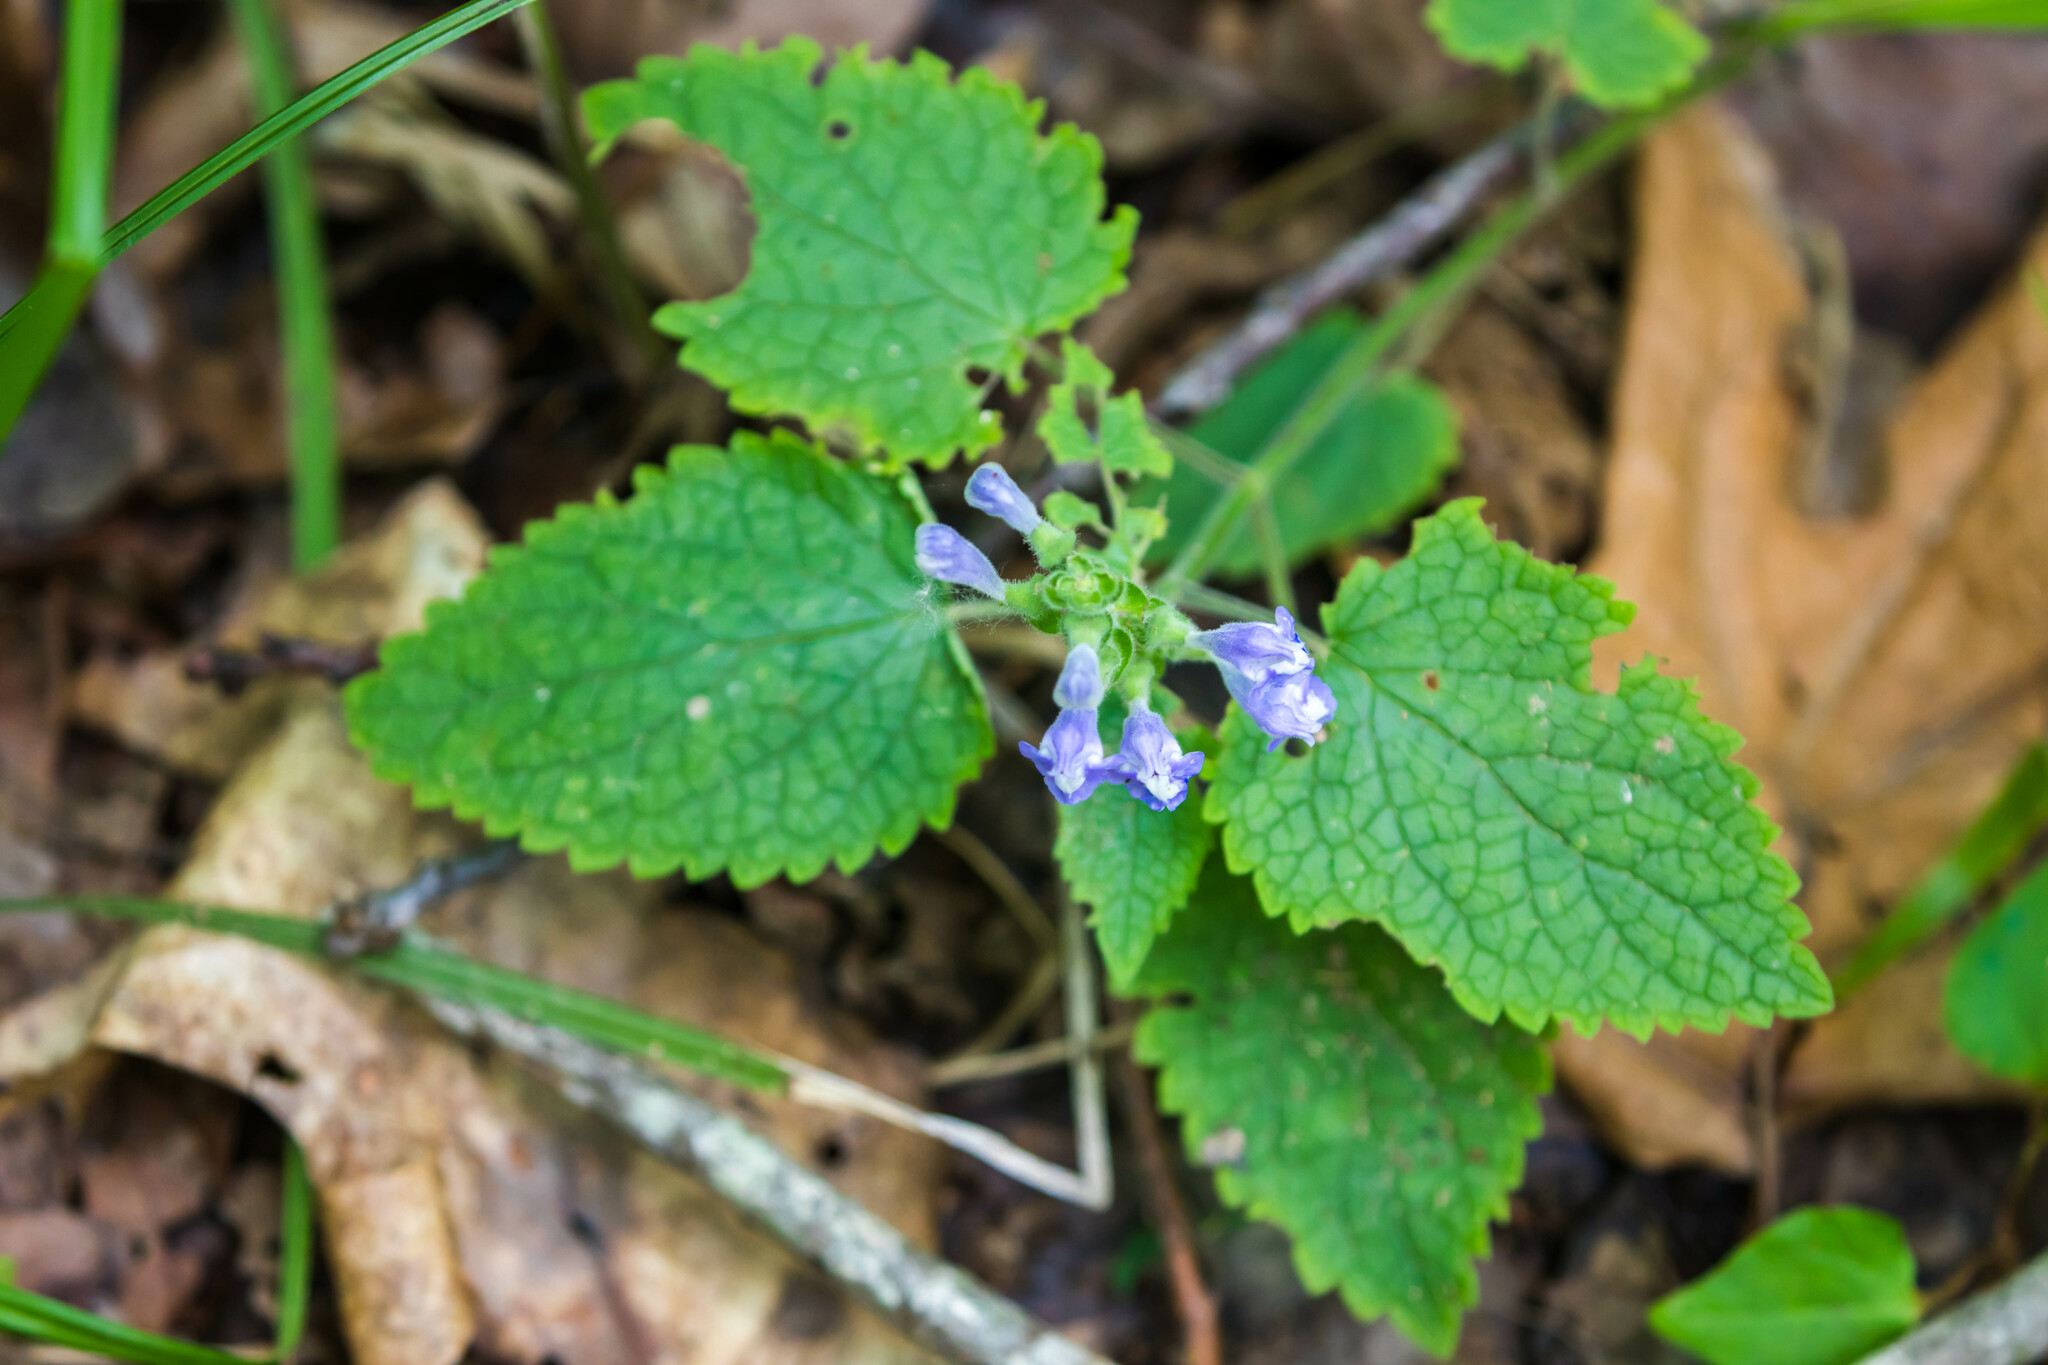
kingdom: Plantae
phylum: Tracheophyta
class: Magnoliopsida
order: Lamiales
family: Lamiaceae
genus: Scutellaria
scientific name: Scutellaria ovata
